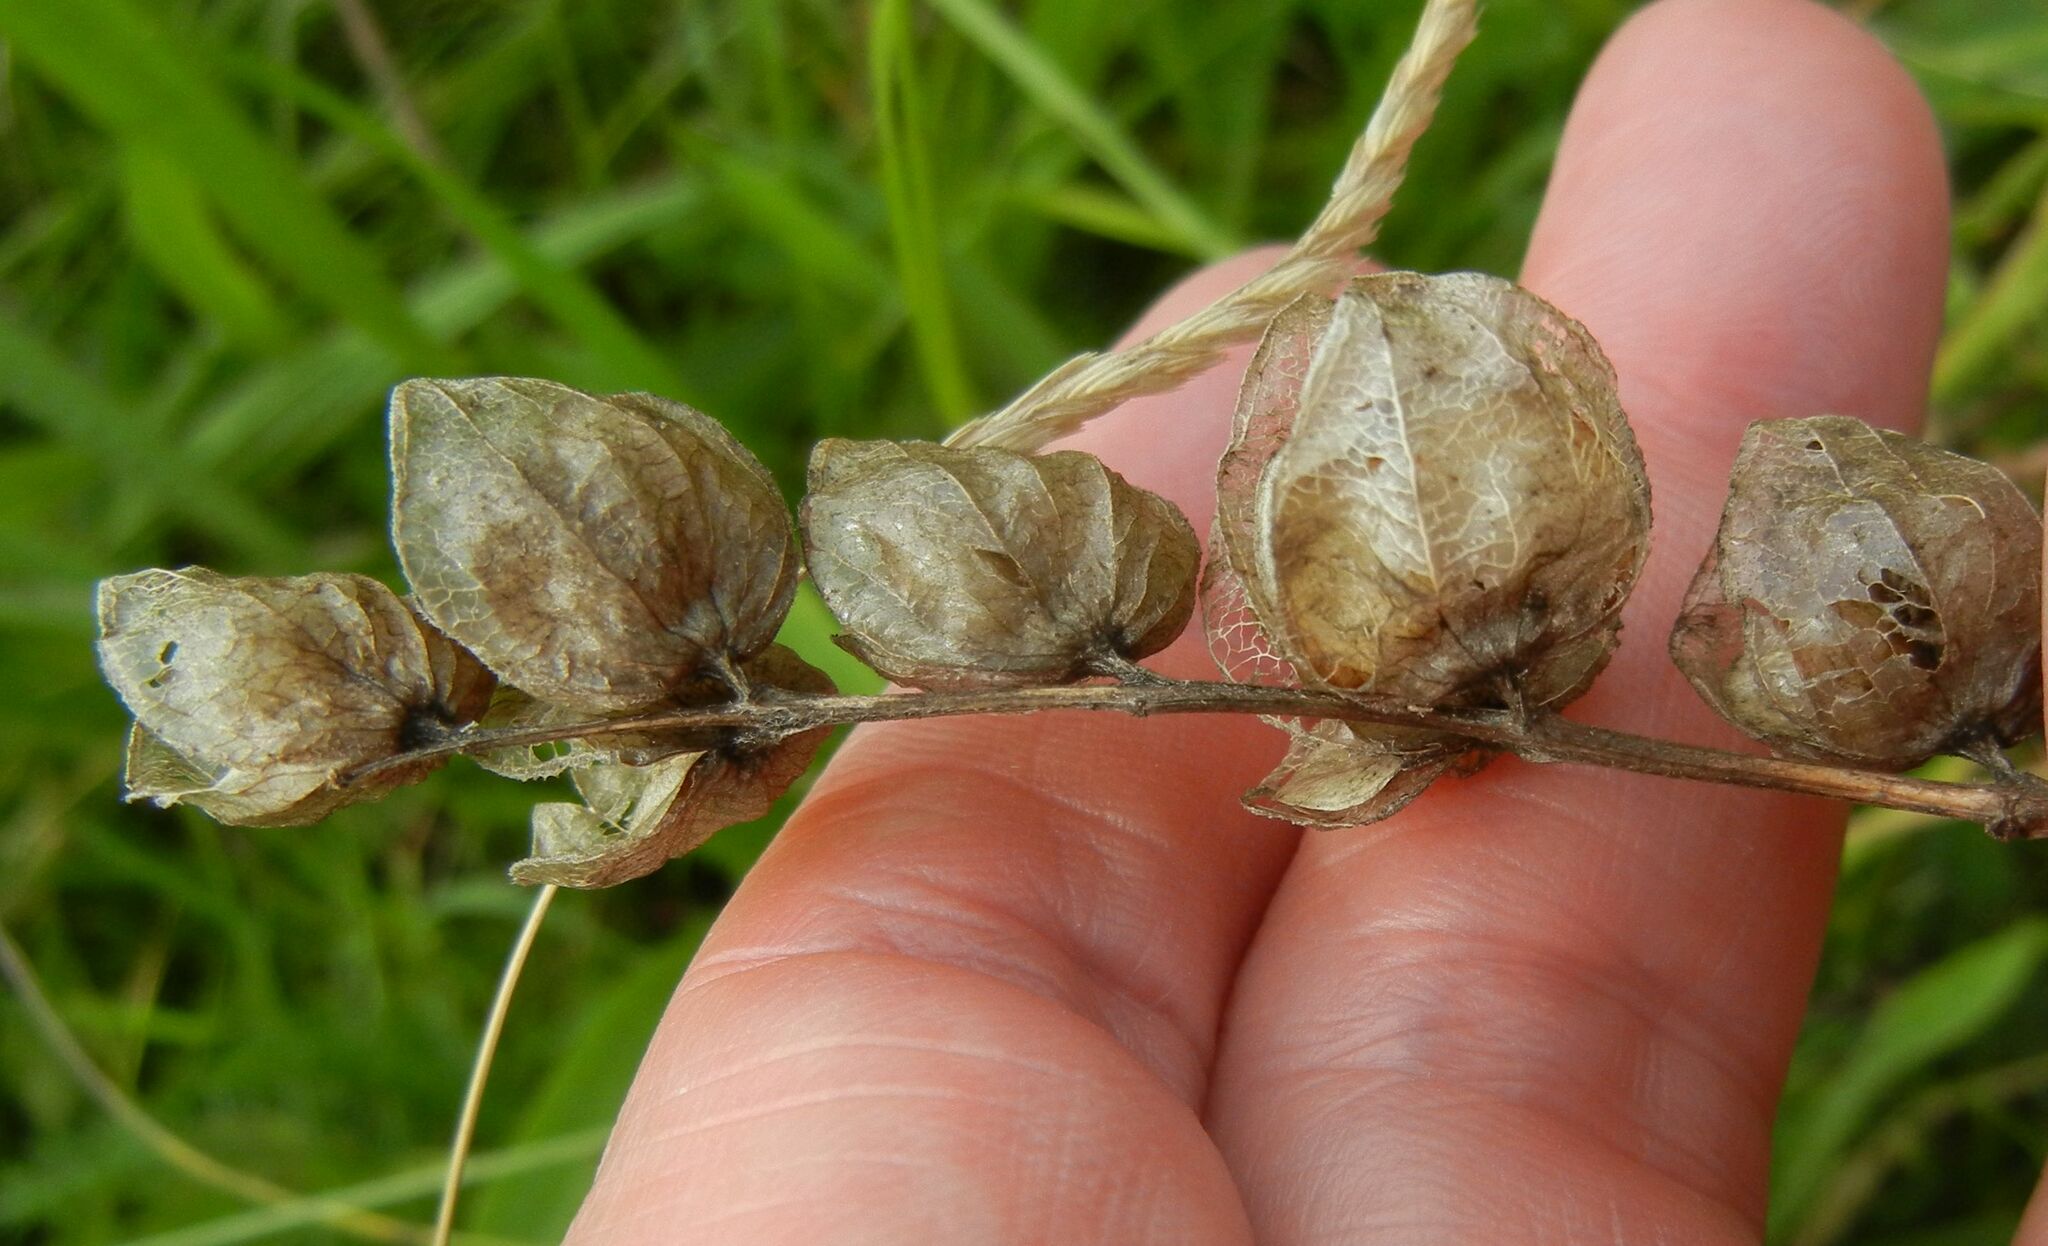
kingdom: Plantae
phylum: Tracheophyta
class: Magnoliopsida
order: Lamiales
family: Orobanchaceae
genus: Rhinanthus
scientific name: Rhinanthus minor
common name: Yellow-rattle
